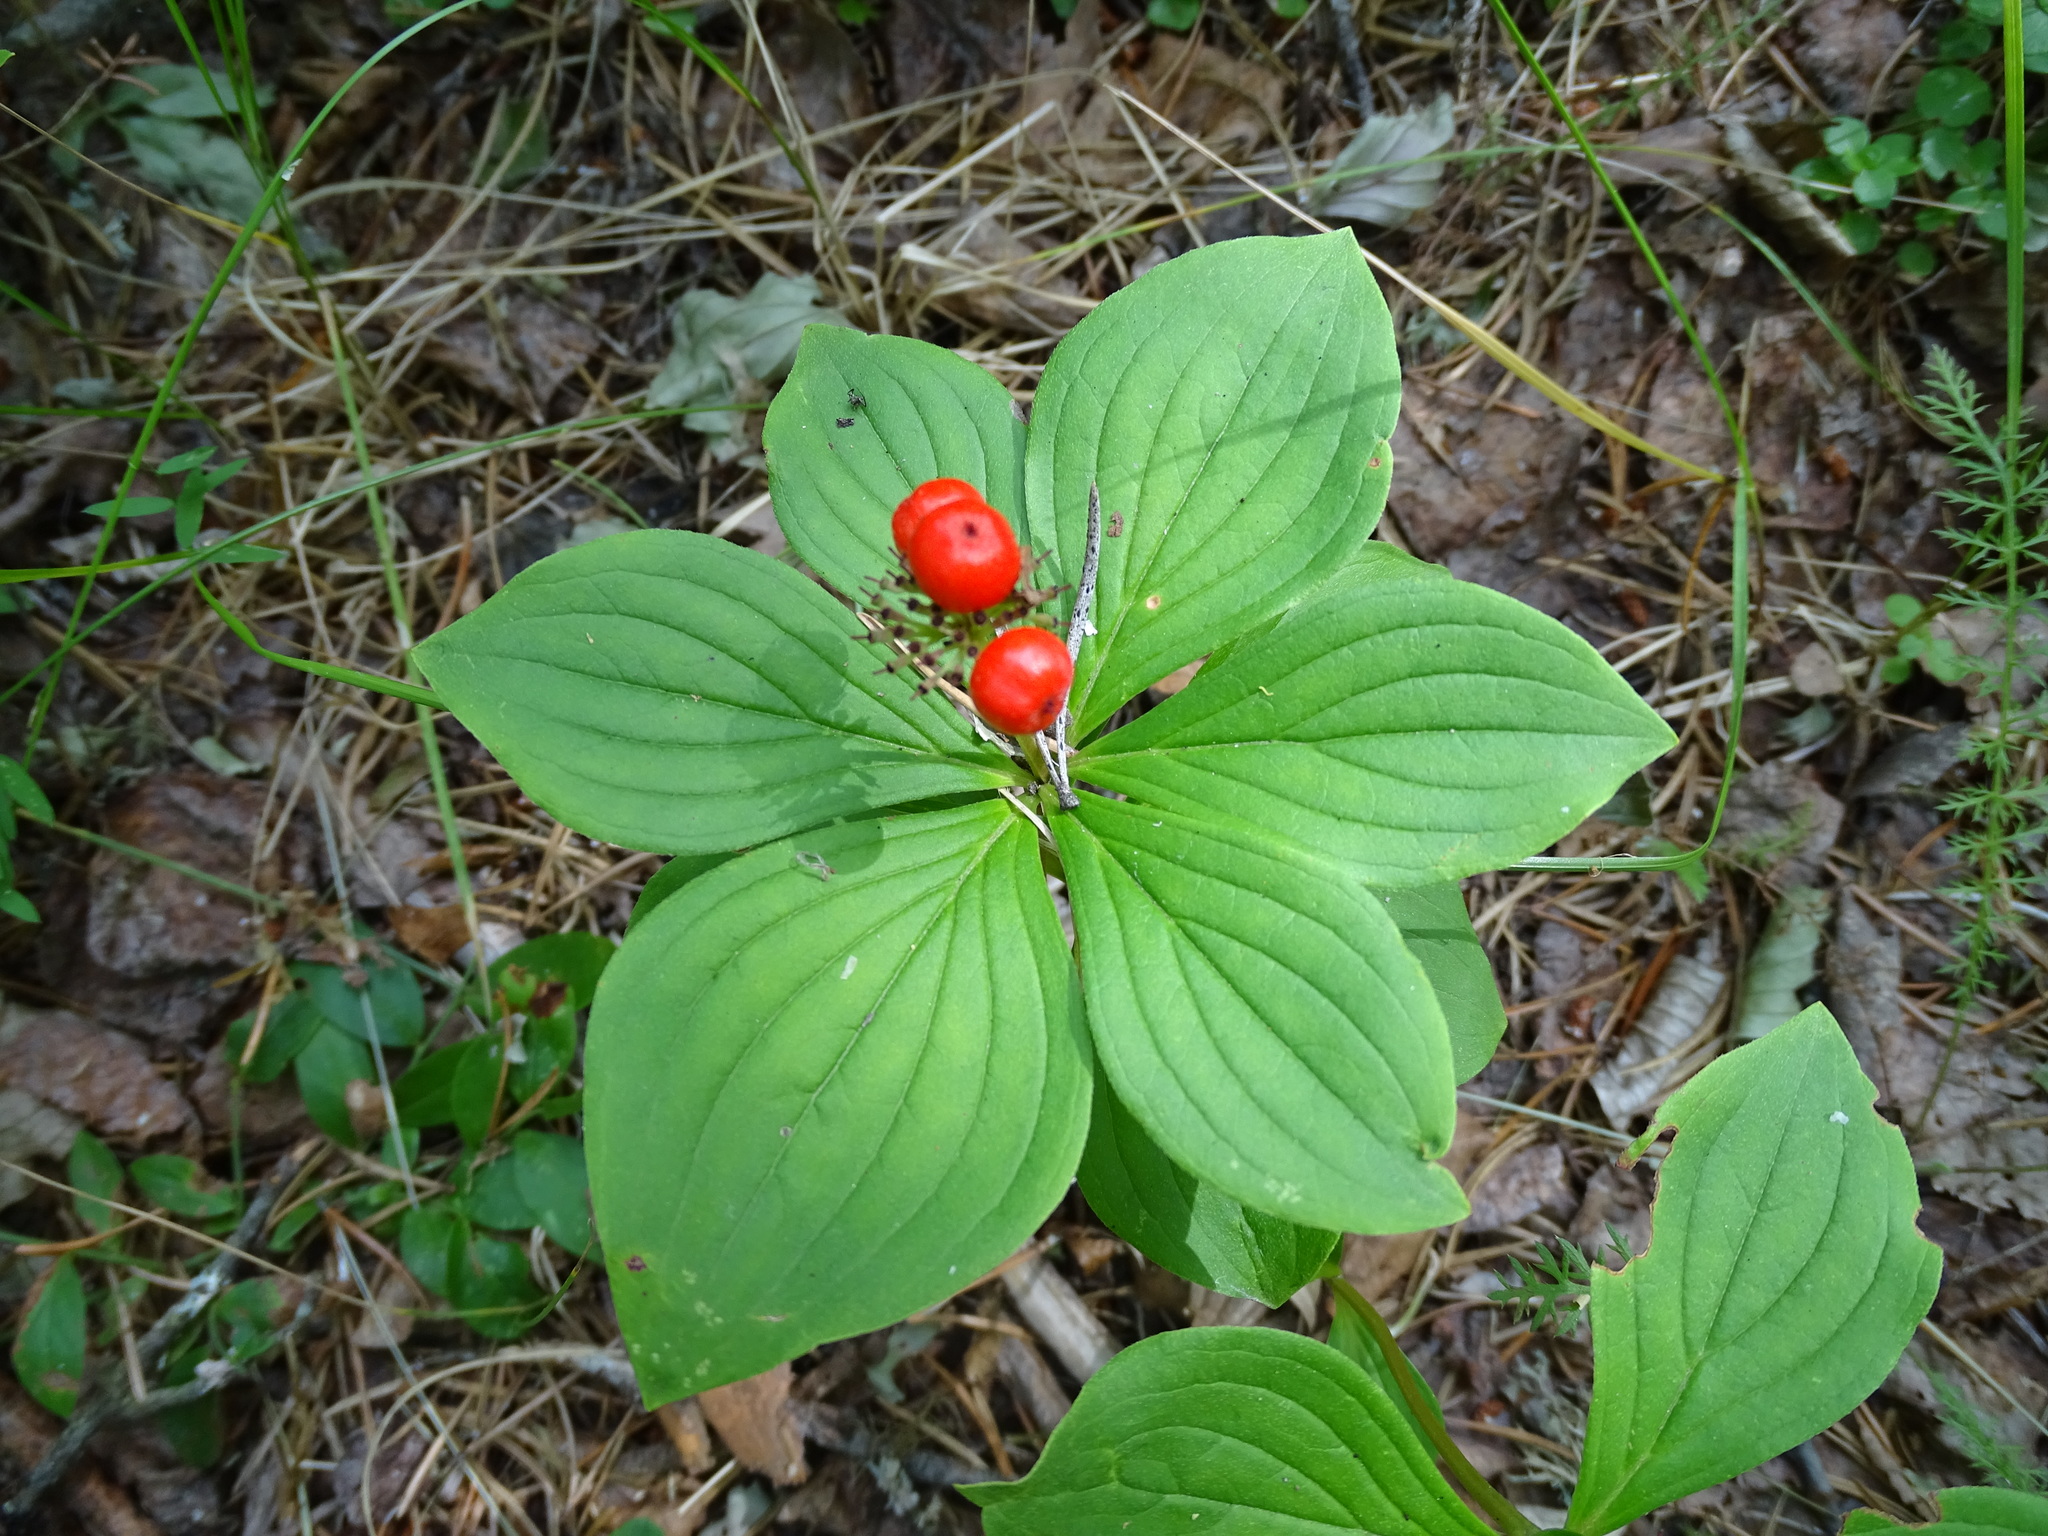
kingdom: Plantae
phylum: Tracheophyta
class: Magnoliopsida
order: Cornales
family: Cornaceae
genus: Cornus
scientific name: Cornus canadensis
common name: Creeping dogwood
